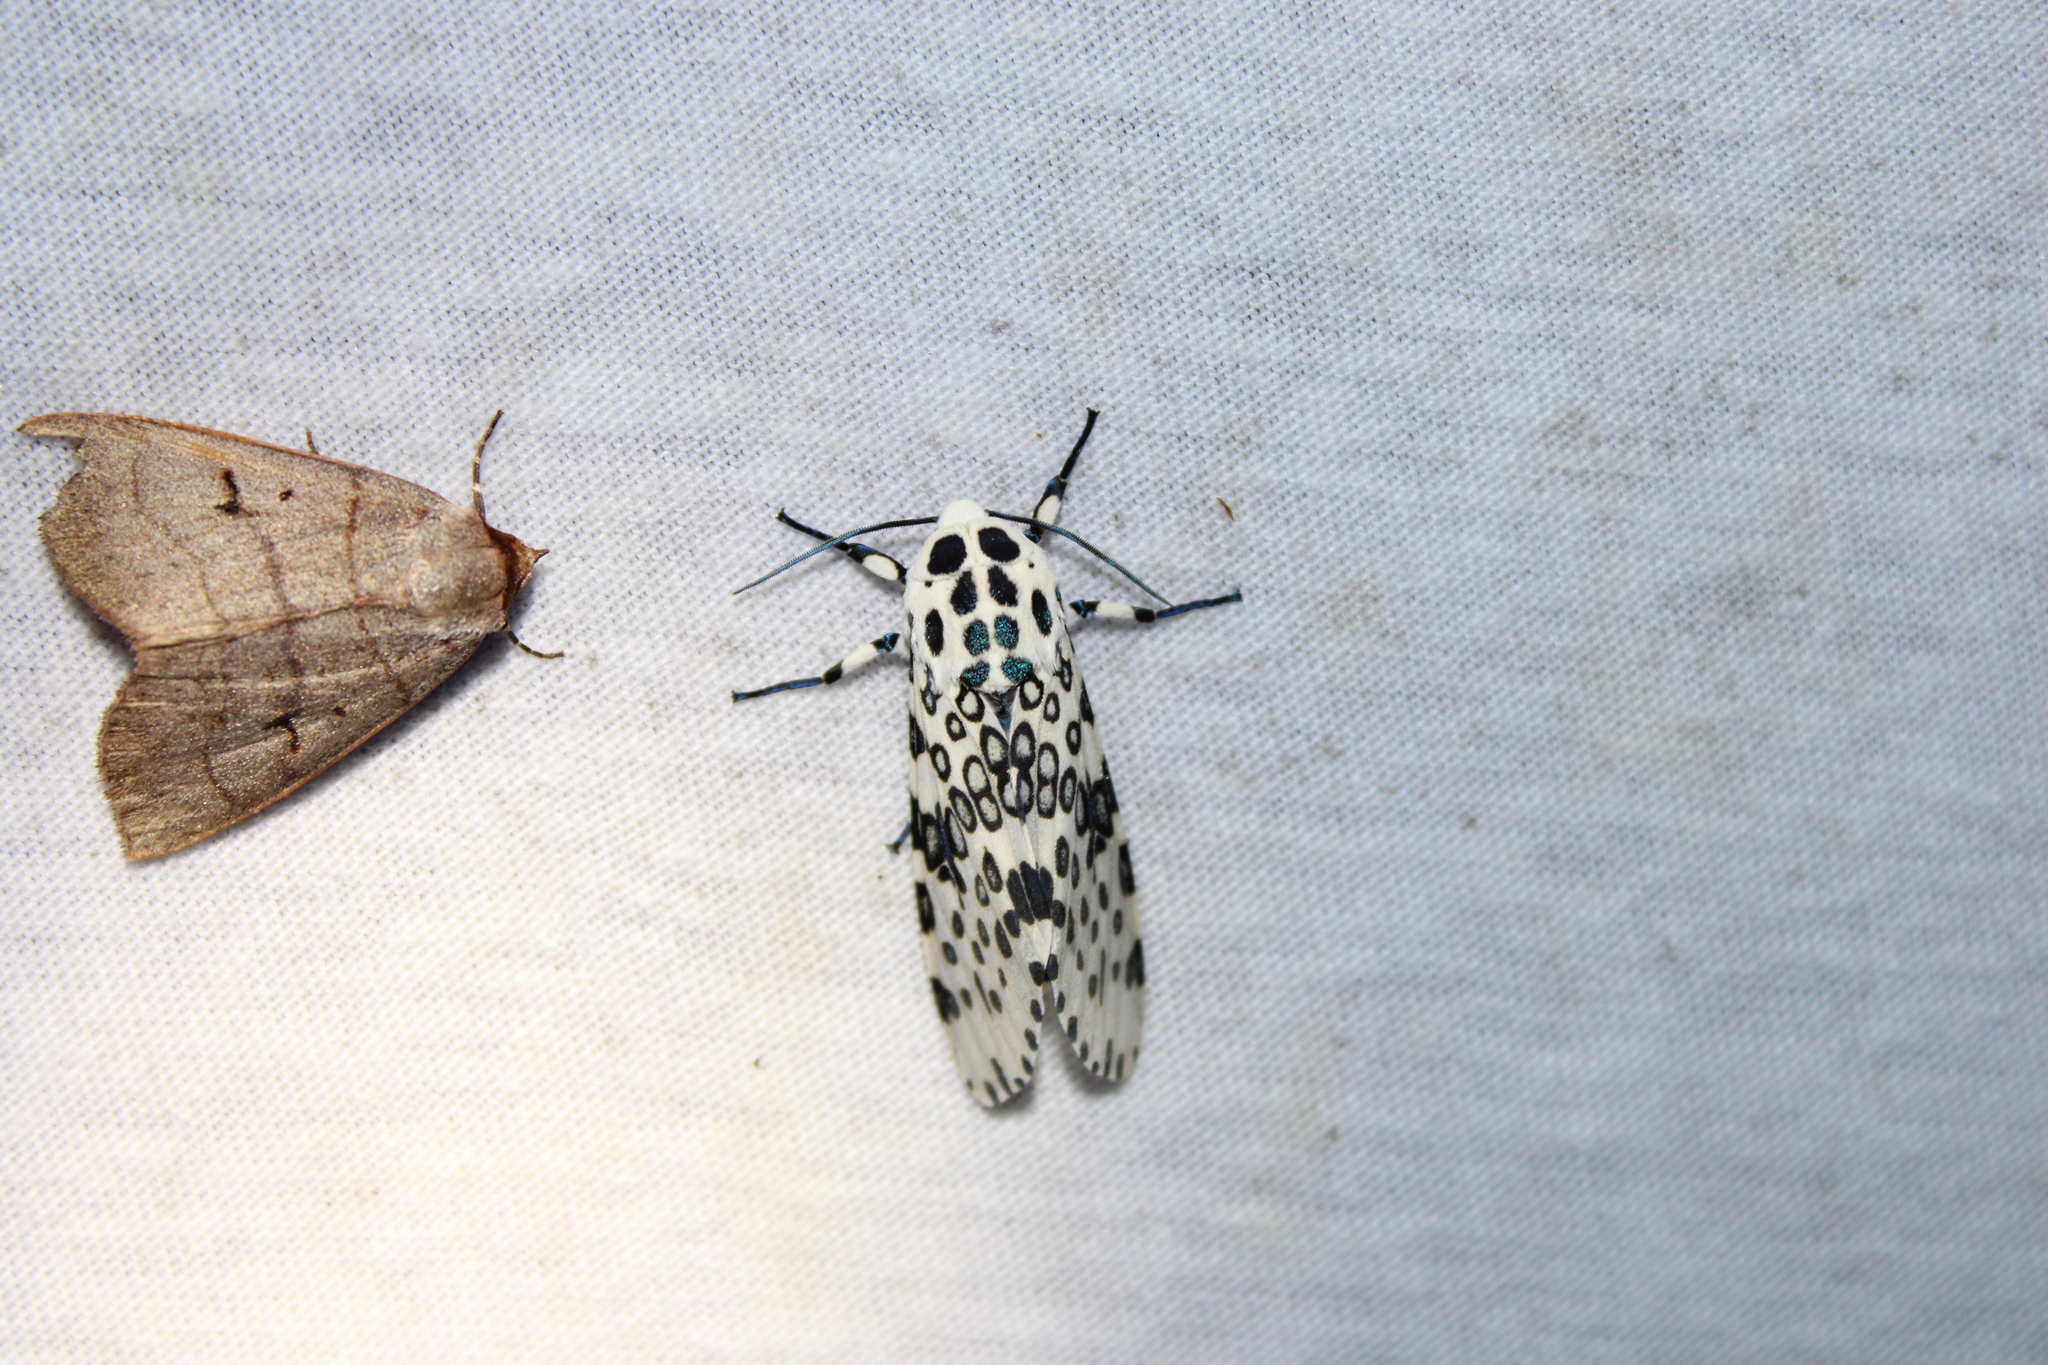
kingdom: Animalia
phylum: Arthropoda
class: Insecta
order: Lepidoptera
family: Erebidae
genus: Hypercompe
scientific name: Hypercompe scribonia
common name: Giant leopard moth
